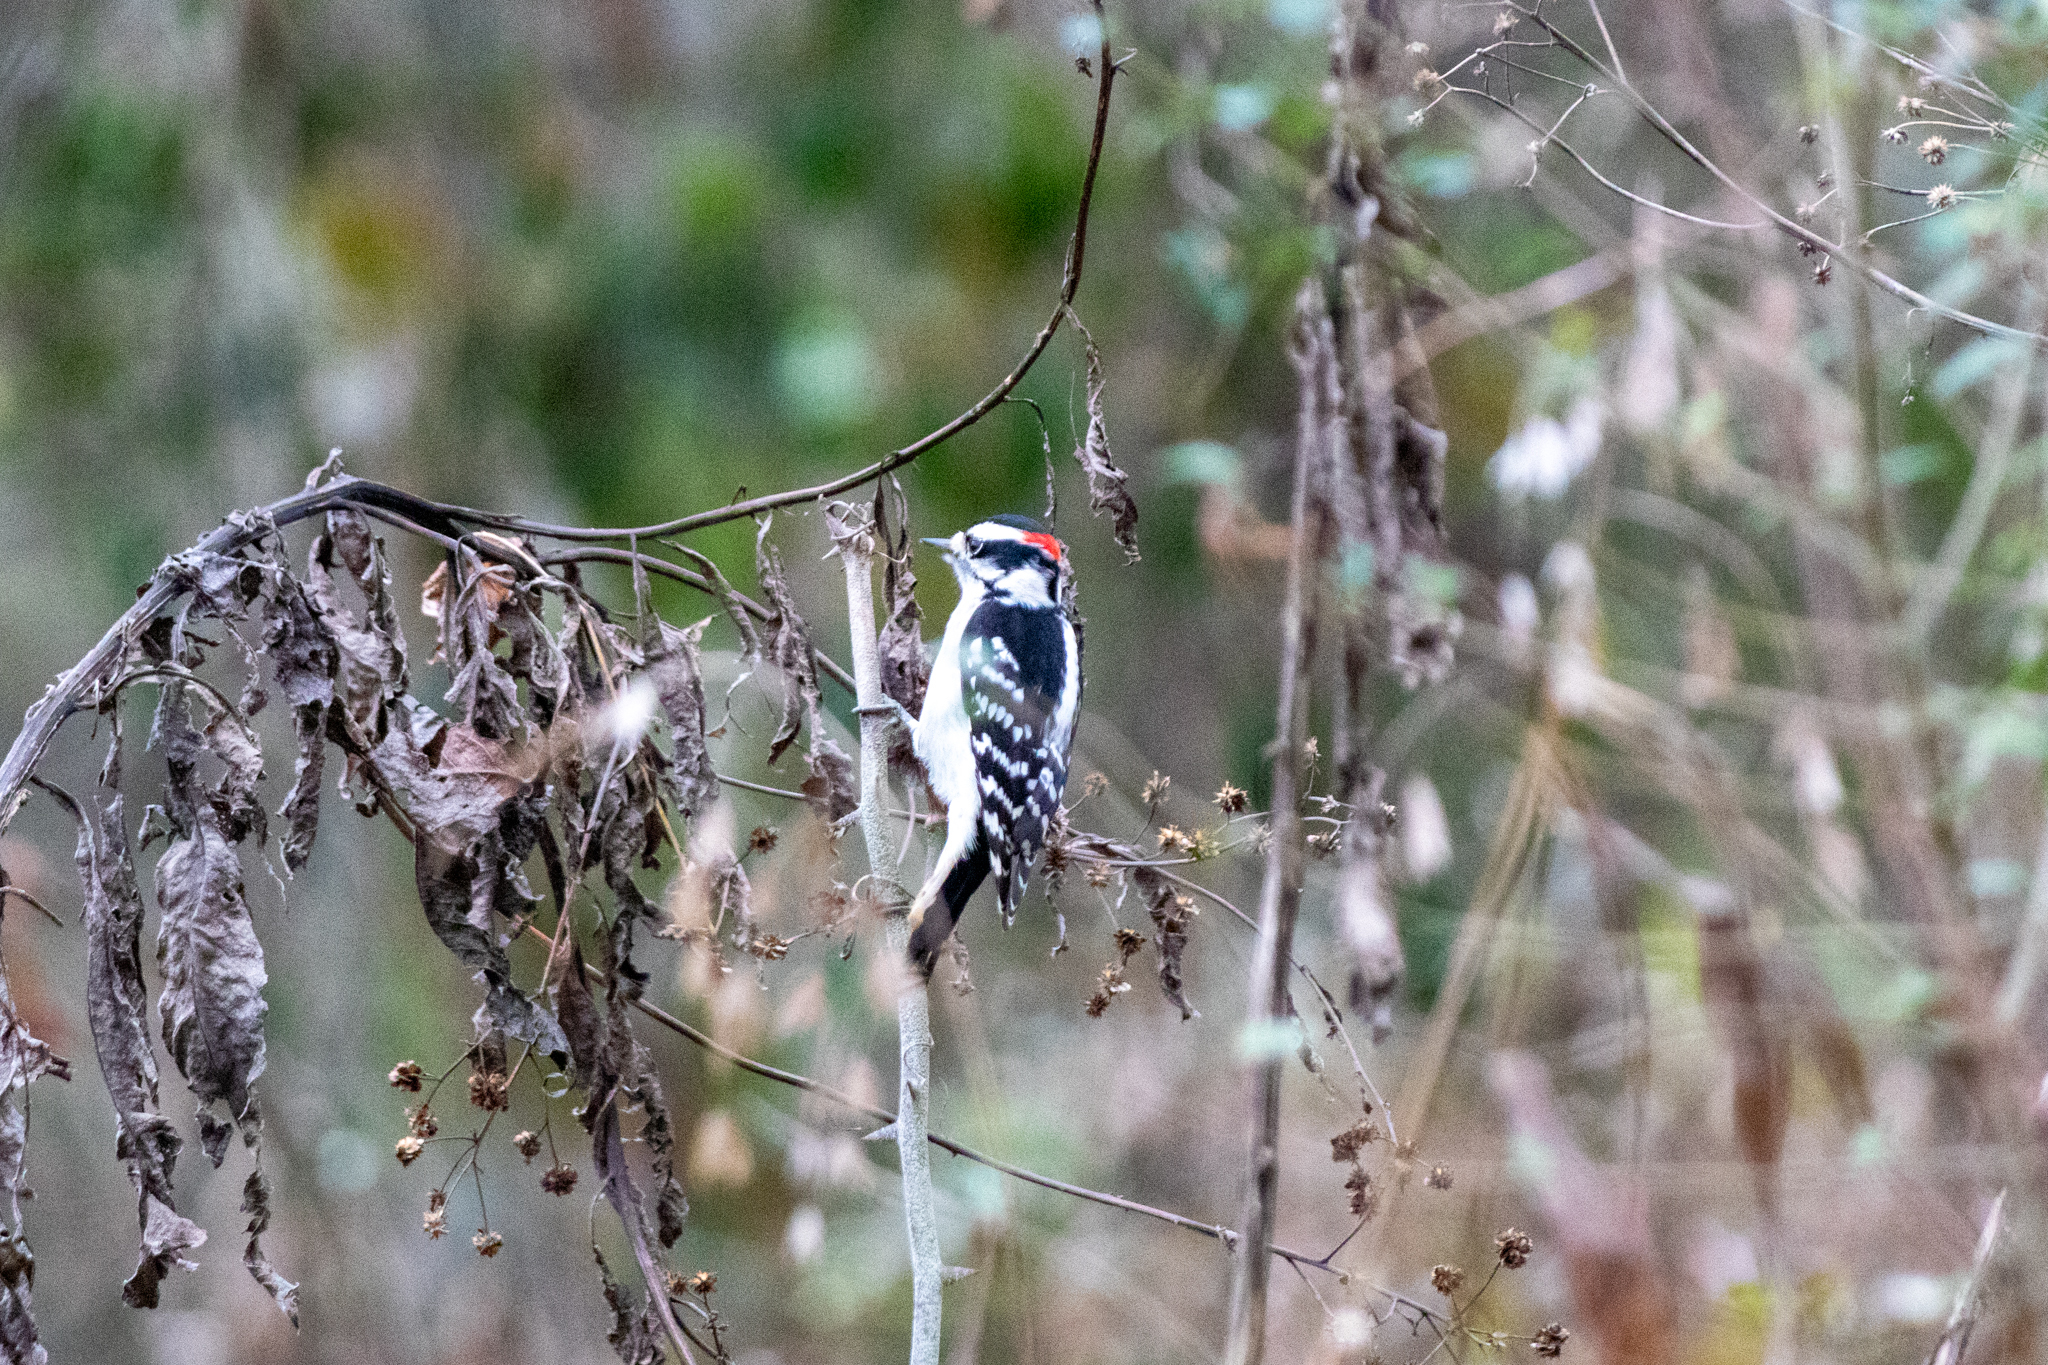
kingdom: Animalia
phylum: Chordata
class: Aves
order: Piciformes
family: Picidae
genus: Dryobates
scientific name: Dryobates pubescens
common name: Downy woodpecker
